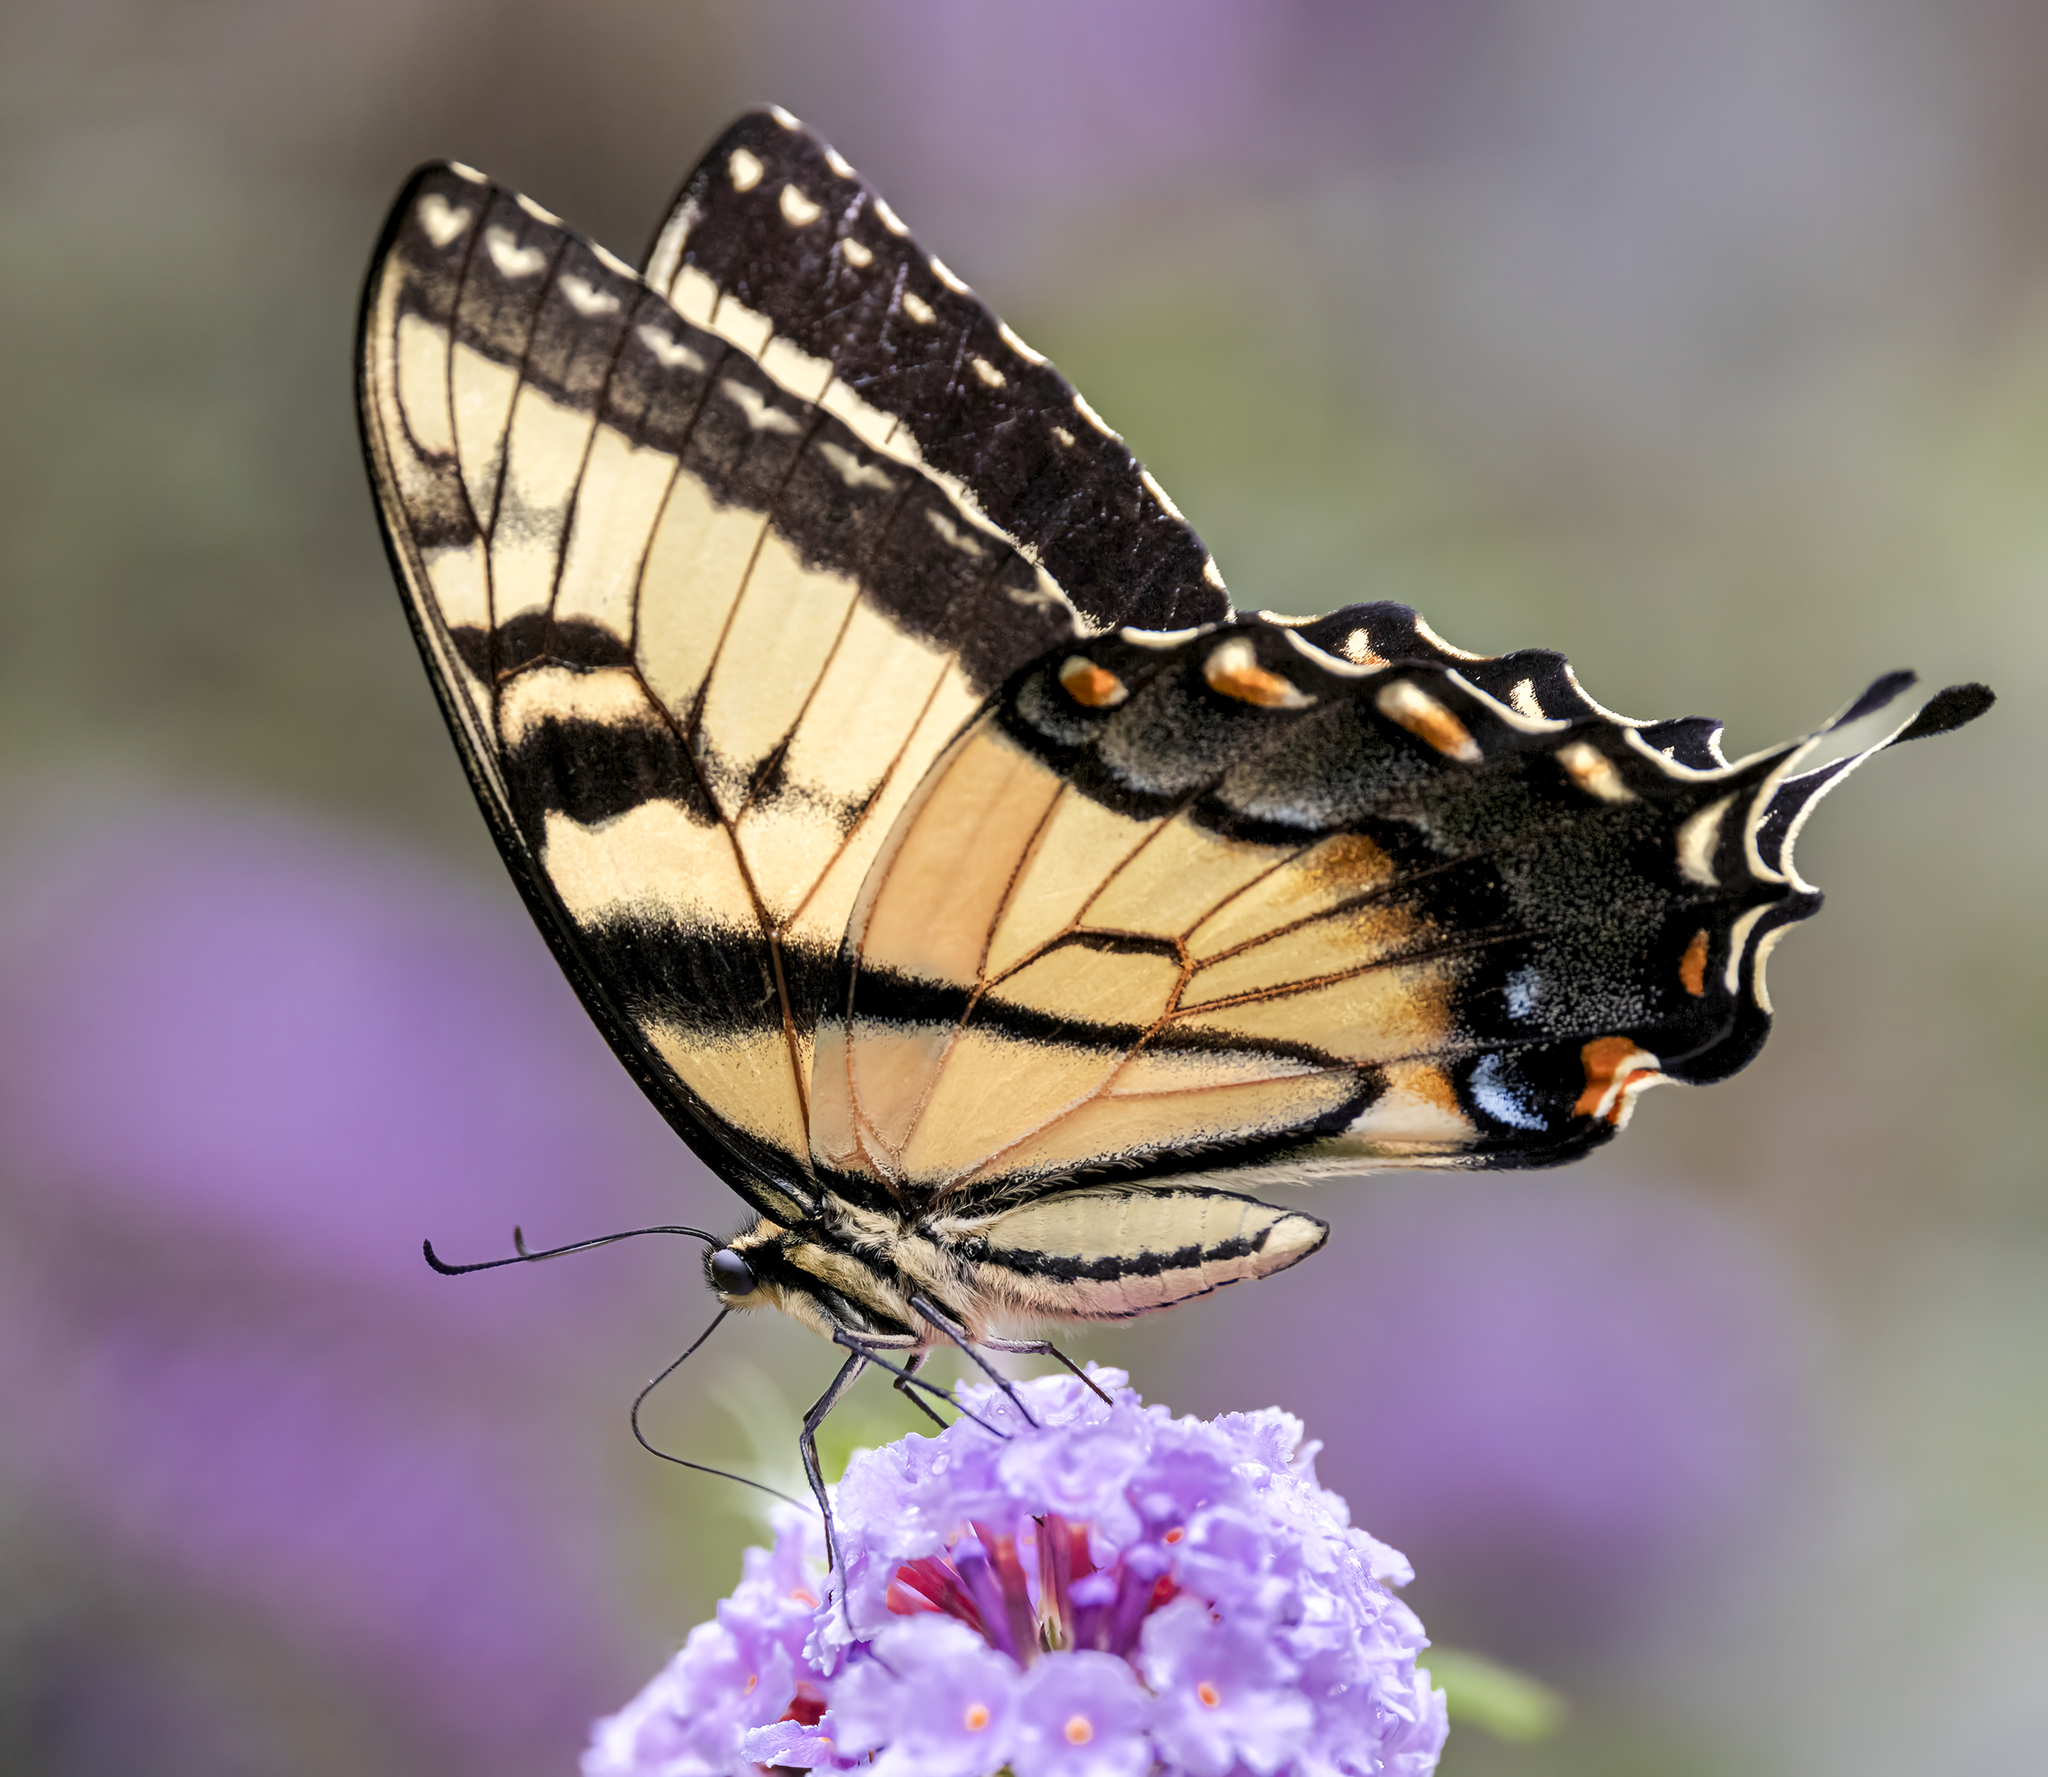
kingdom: Animalia
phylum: Arthropoda
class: Insecta
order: Lepidoptera
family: Papilionidae
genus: Papilio
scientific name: Papilio glaucus
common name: Tiger swallowtail
